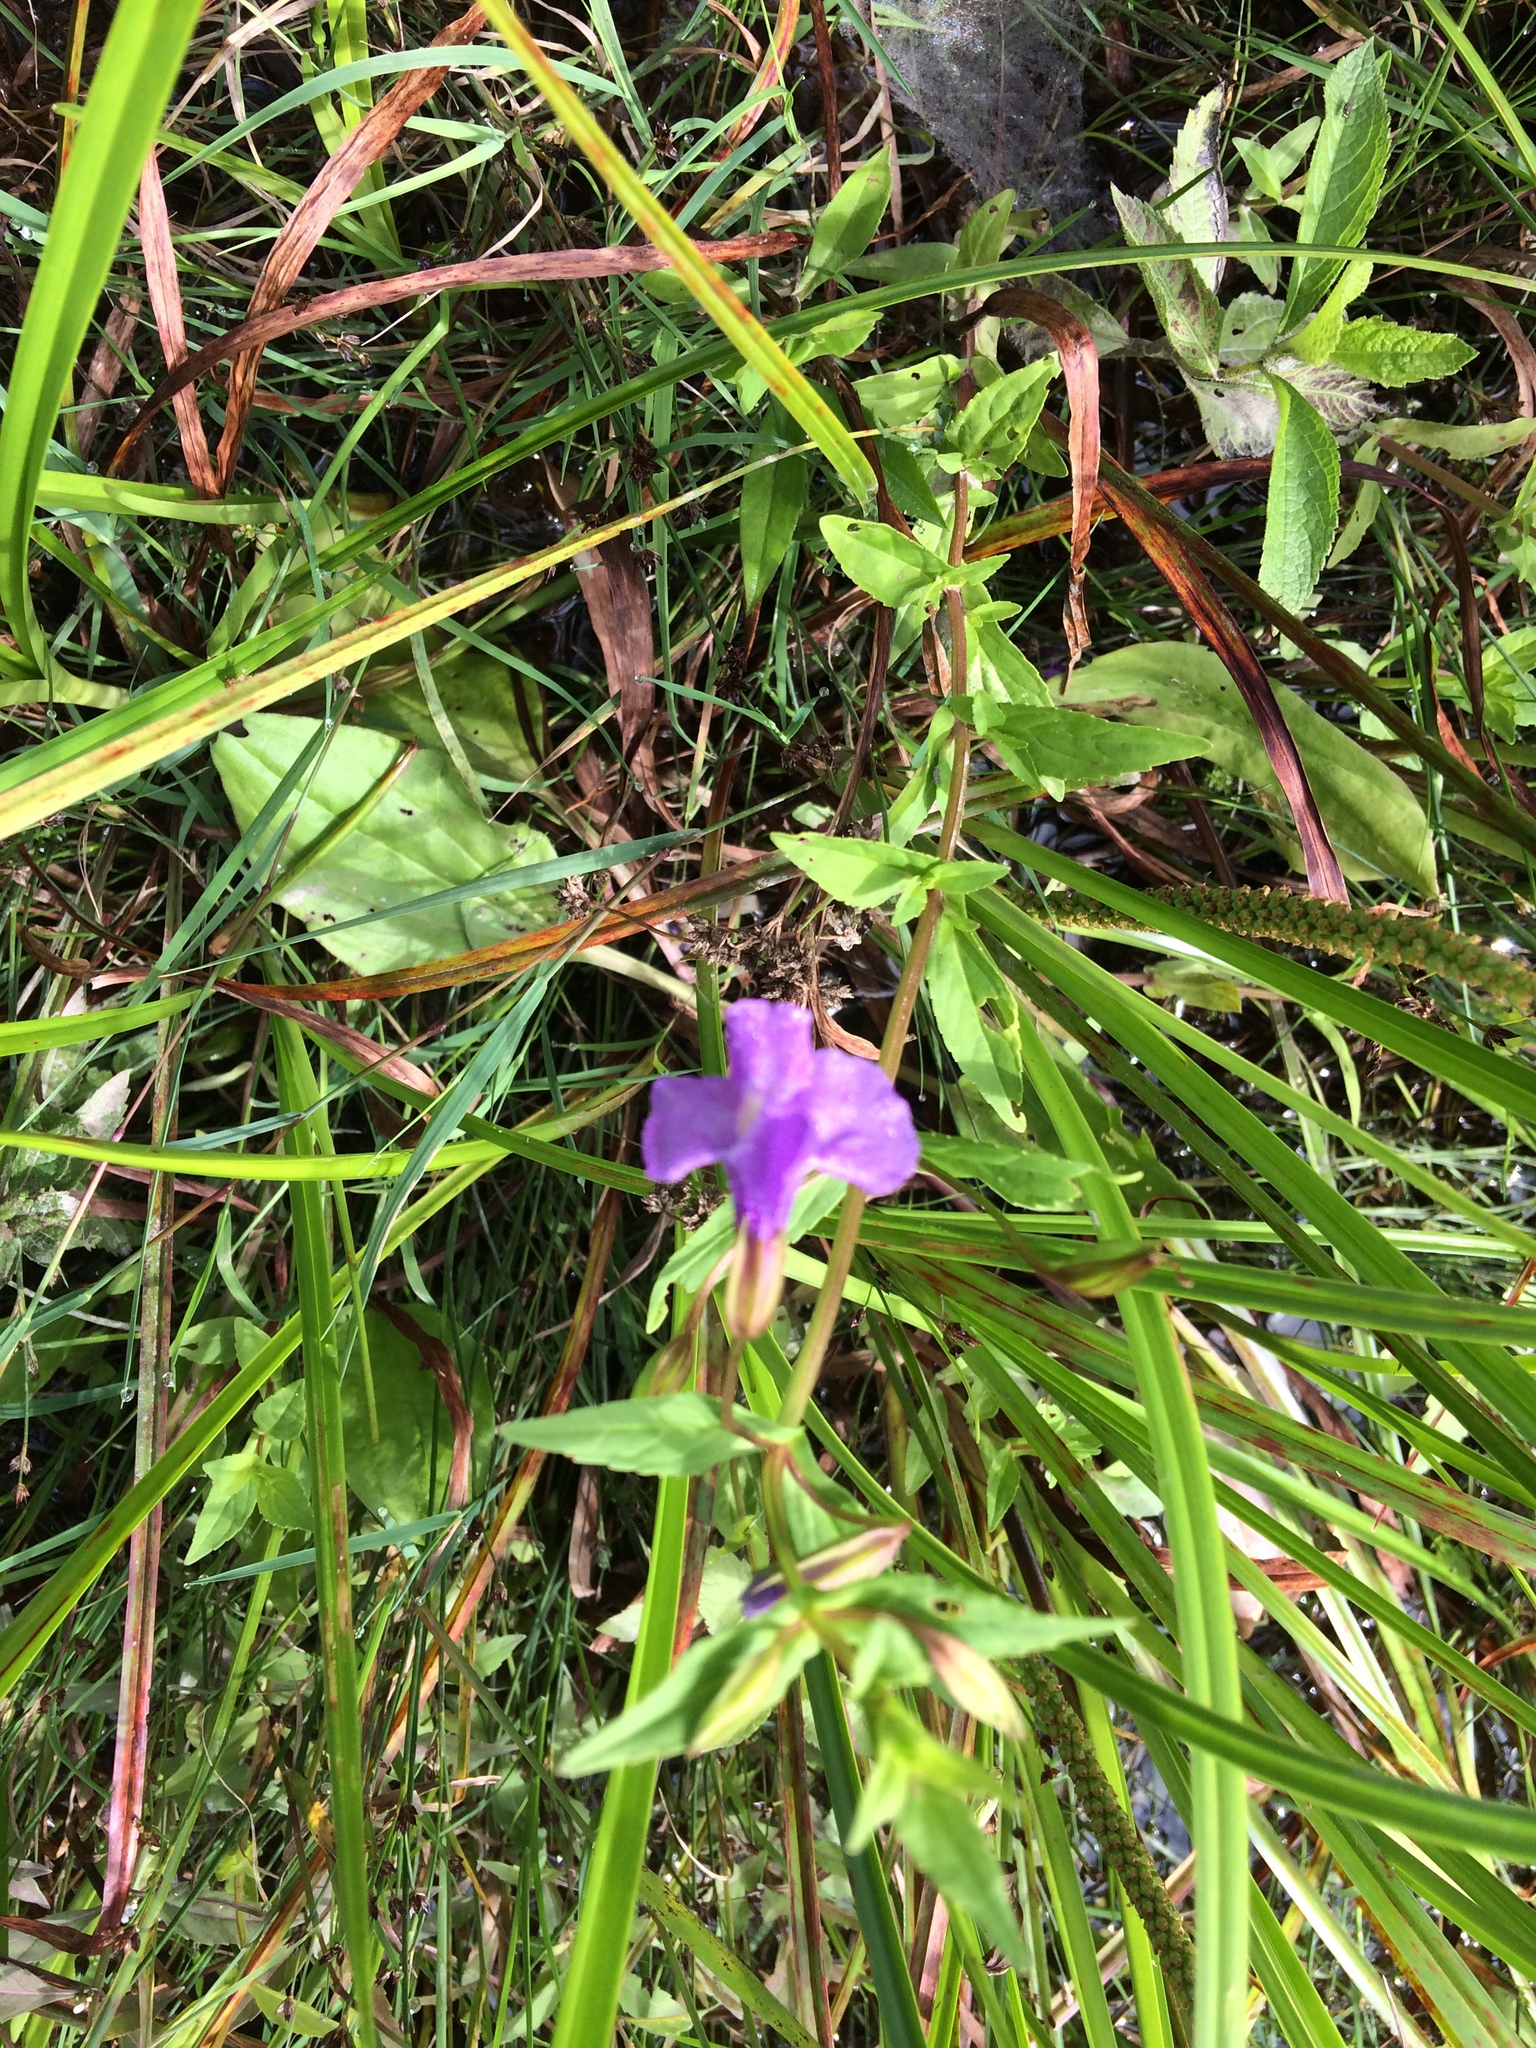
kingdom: Plantae
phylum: Tracheophyta
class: Magnoliopsida
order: Lamiales
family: Phrymaceae
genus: Mimulus
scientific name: Mimulus ringens
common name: Allegheny monkeyflower
